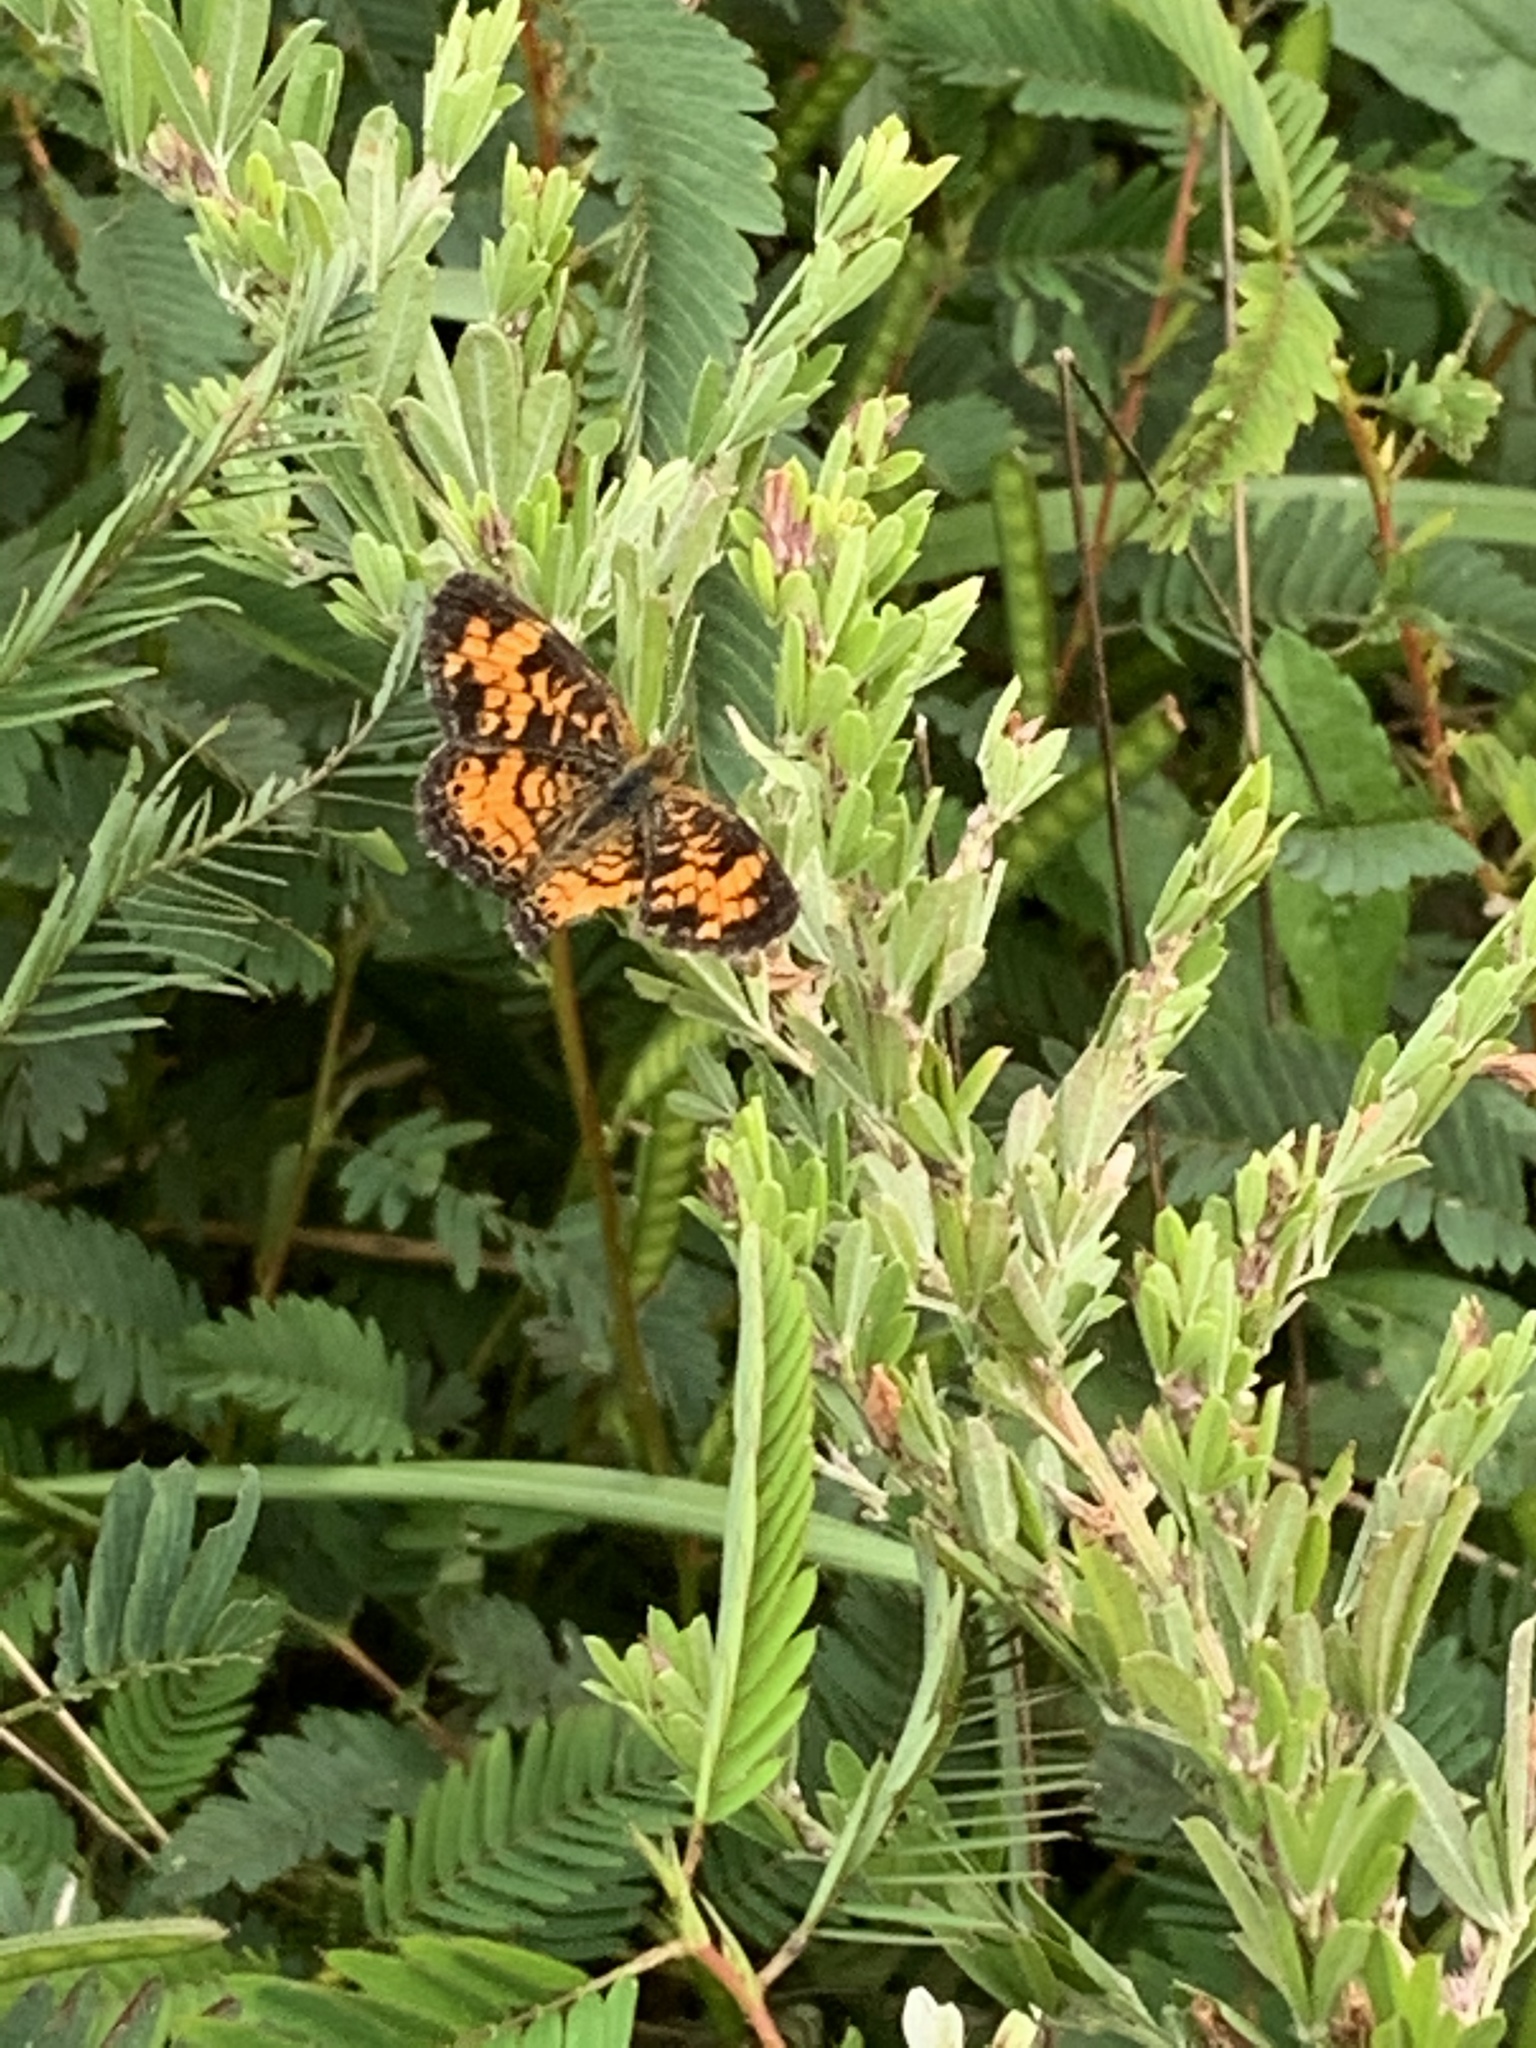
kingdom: Animalia
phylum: Arthropoda
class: Insecta
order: Lepidoptera
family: Nymphalidae
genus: Phyciodes
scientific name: Phyciodes tharos
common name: Pearl crescent
